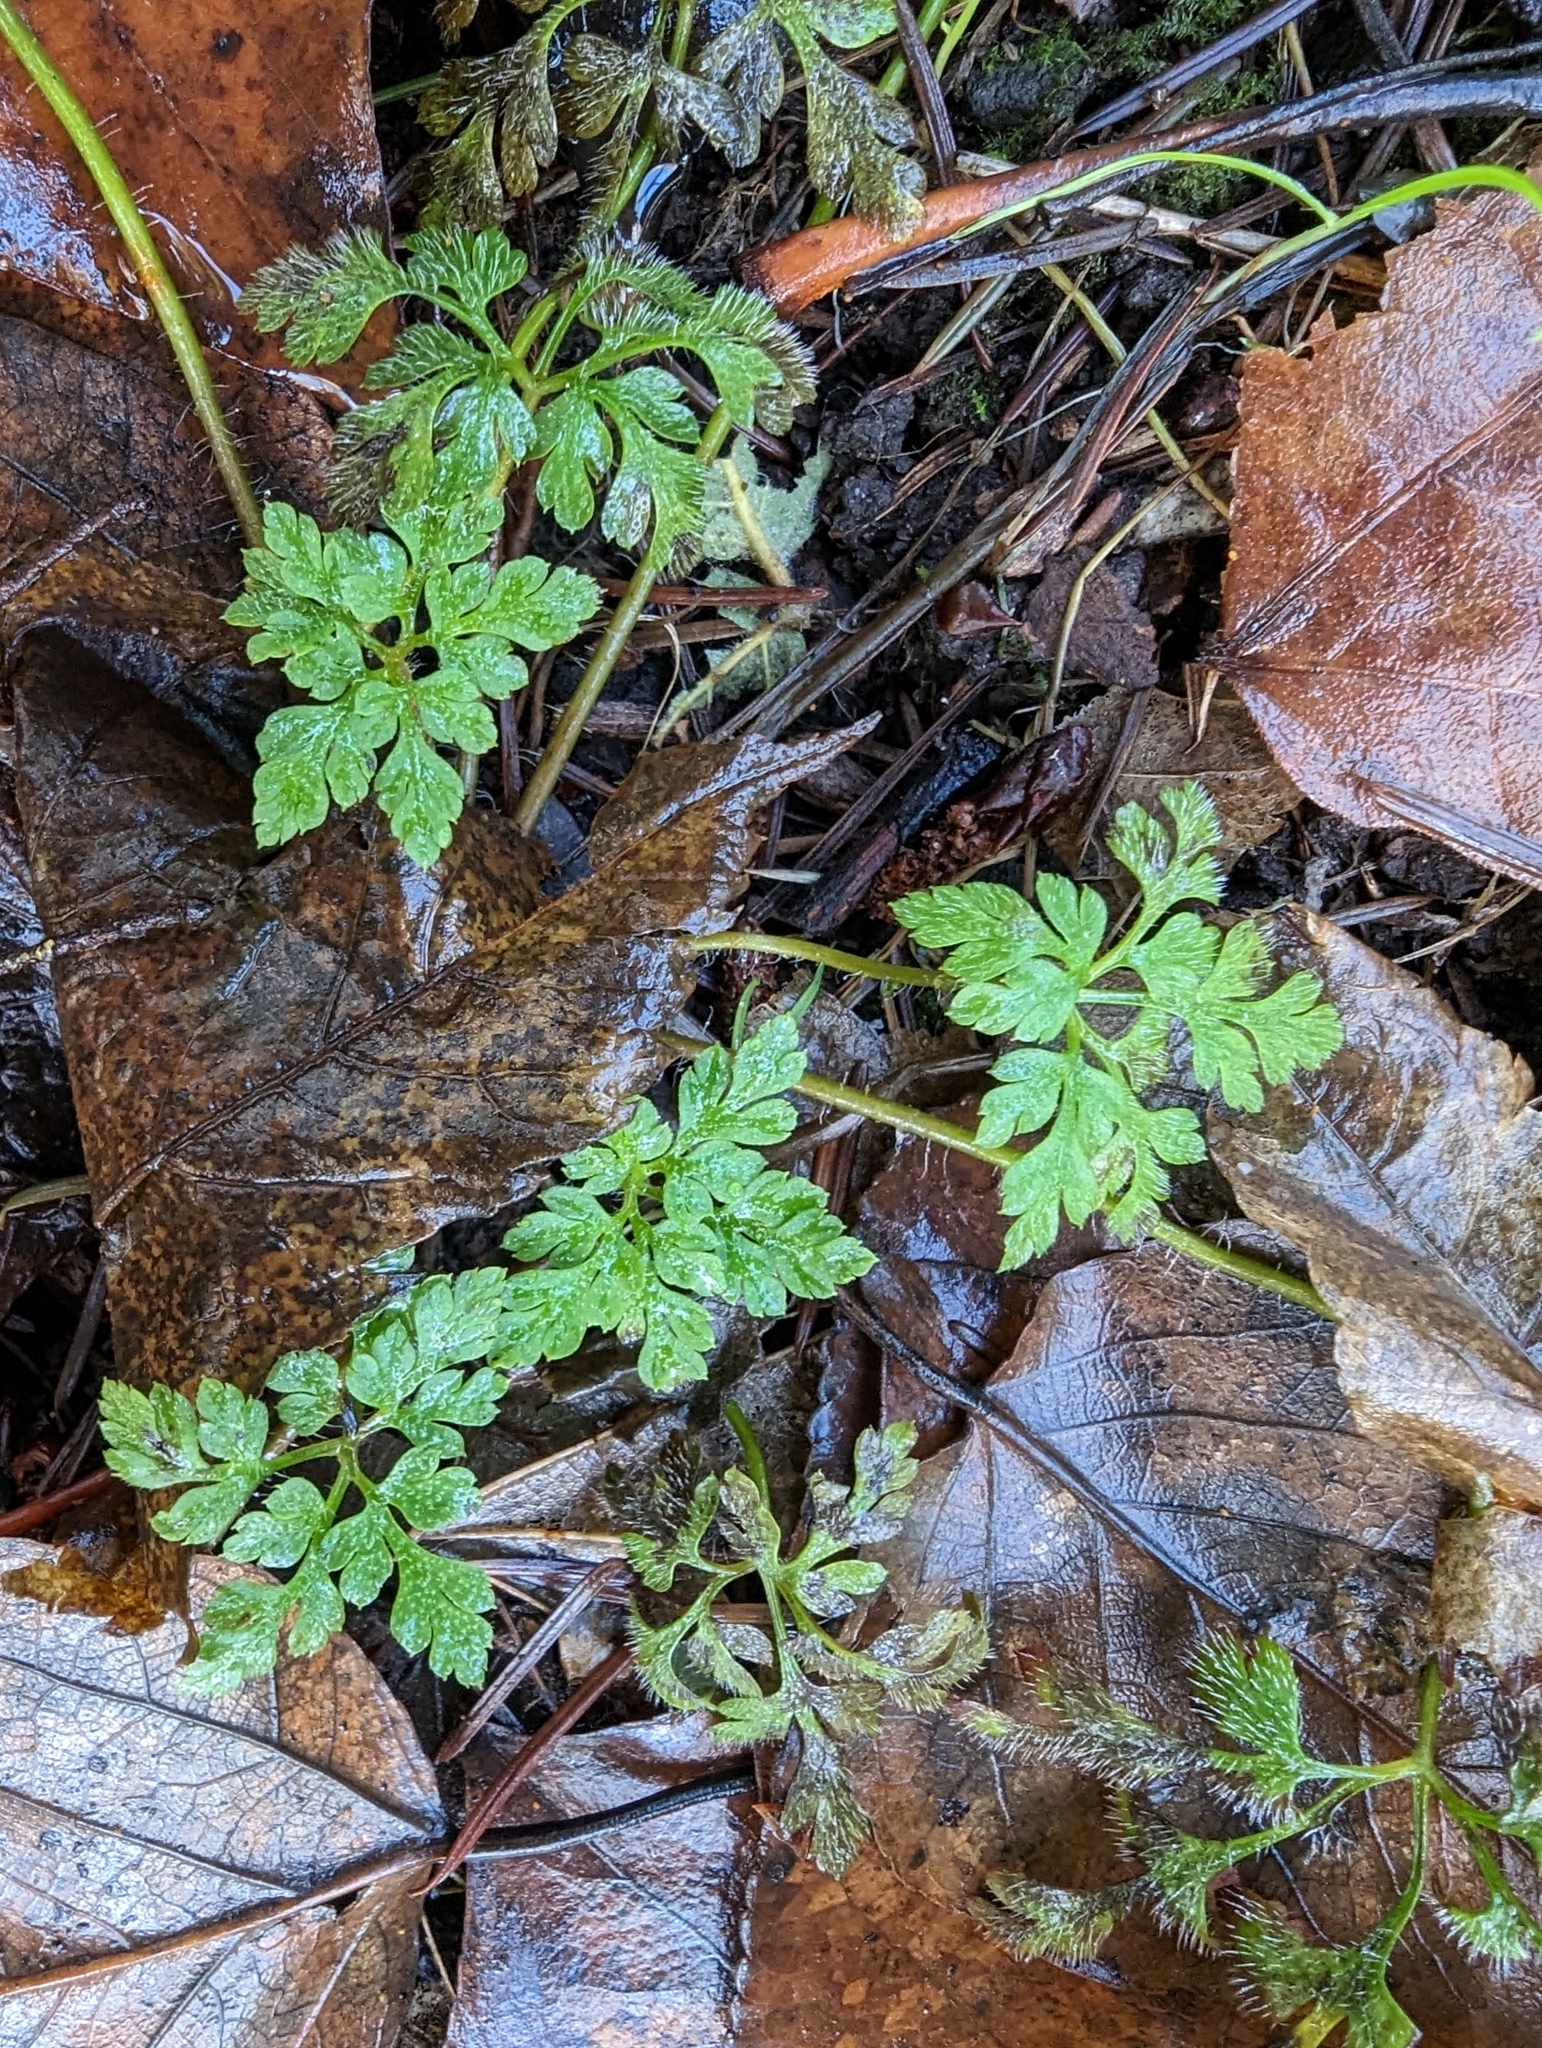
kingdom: Plantae
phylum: Tracheophyta
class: Magnoliopsida
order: Geraniales
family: Geraniaceae
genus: Geranium
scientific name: Geranium robertianum
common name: Herb-robert
